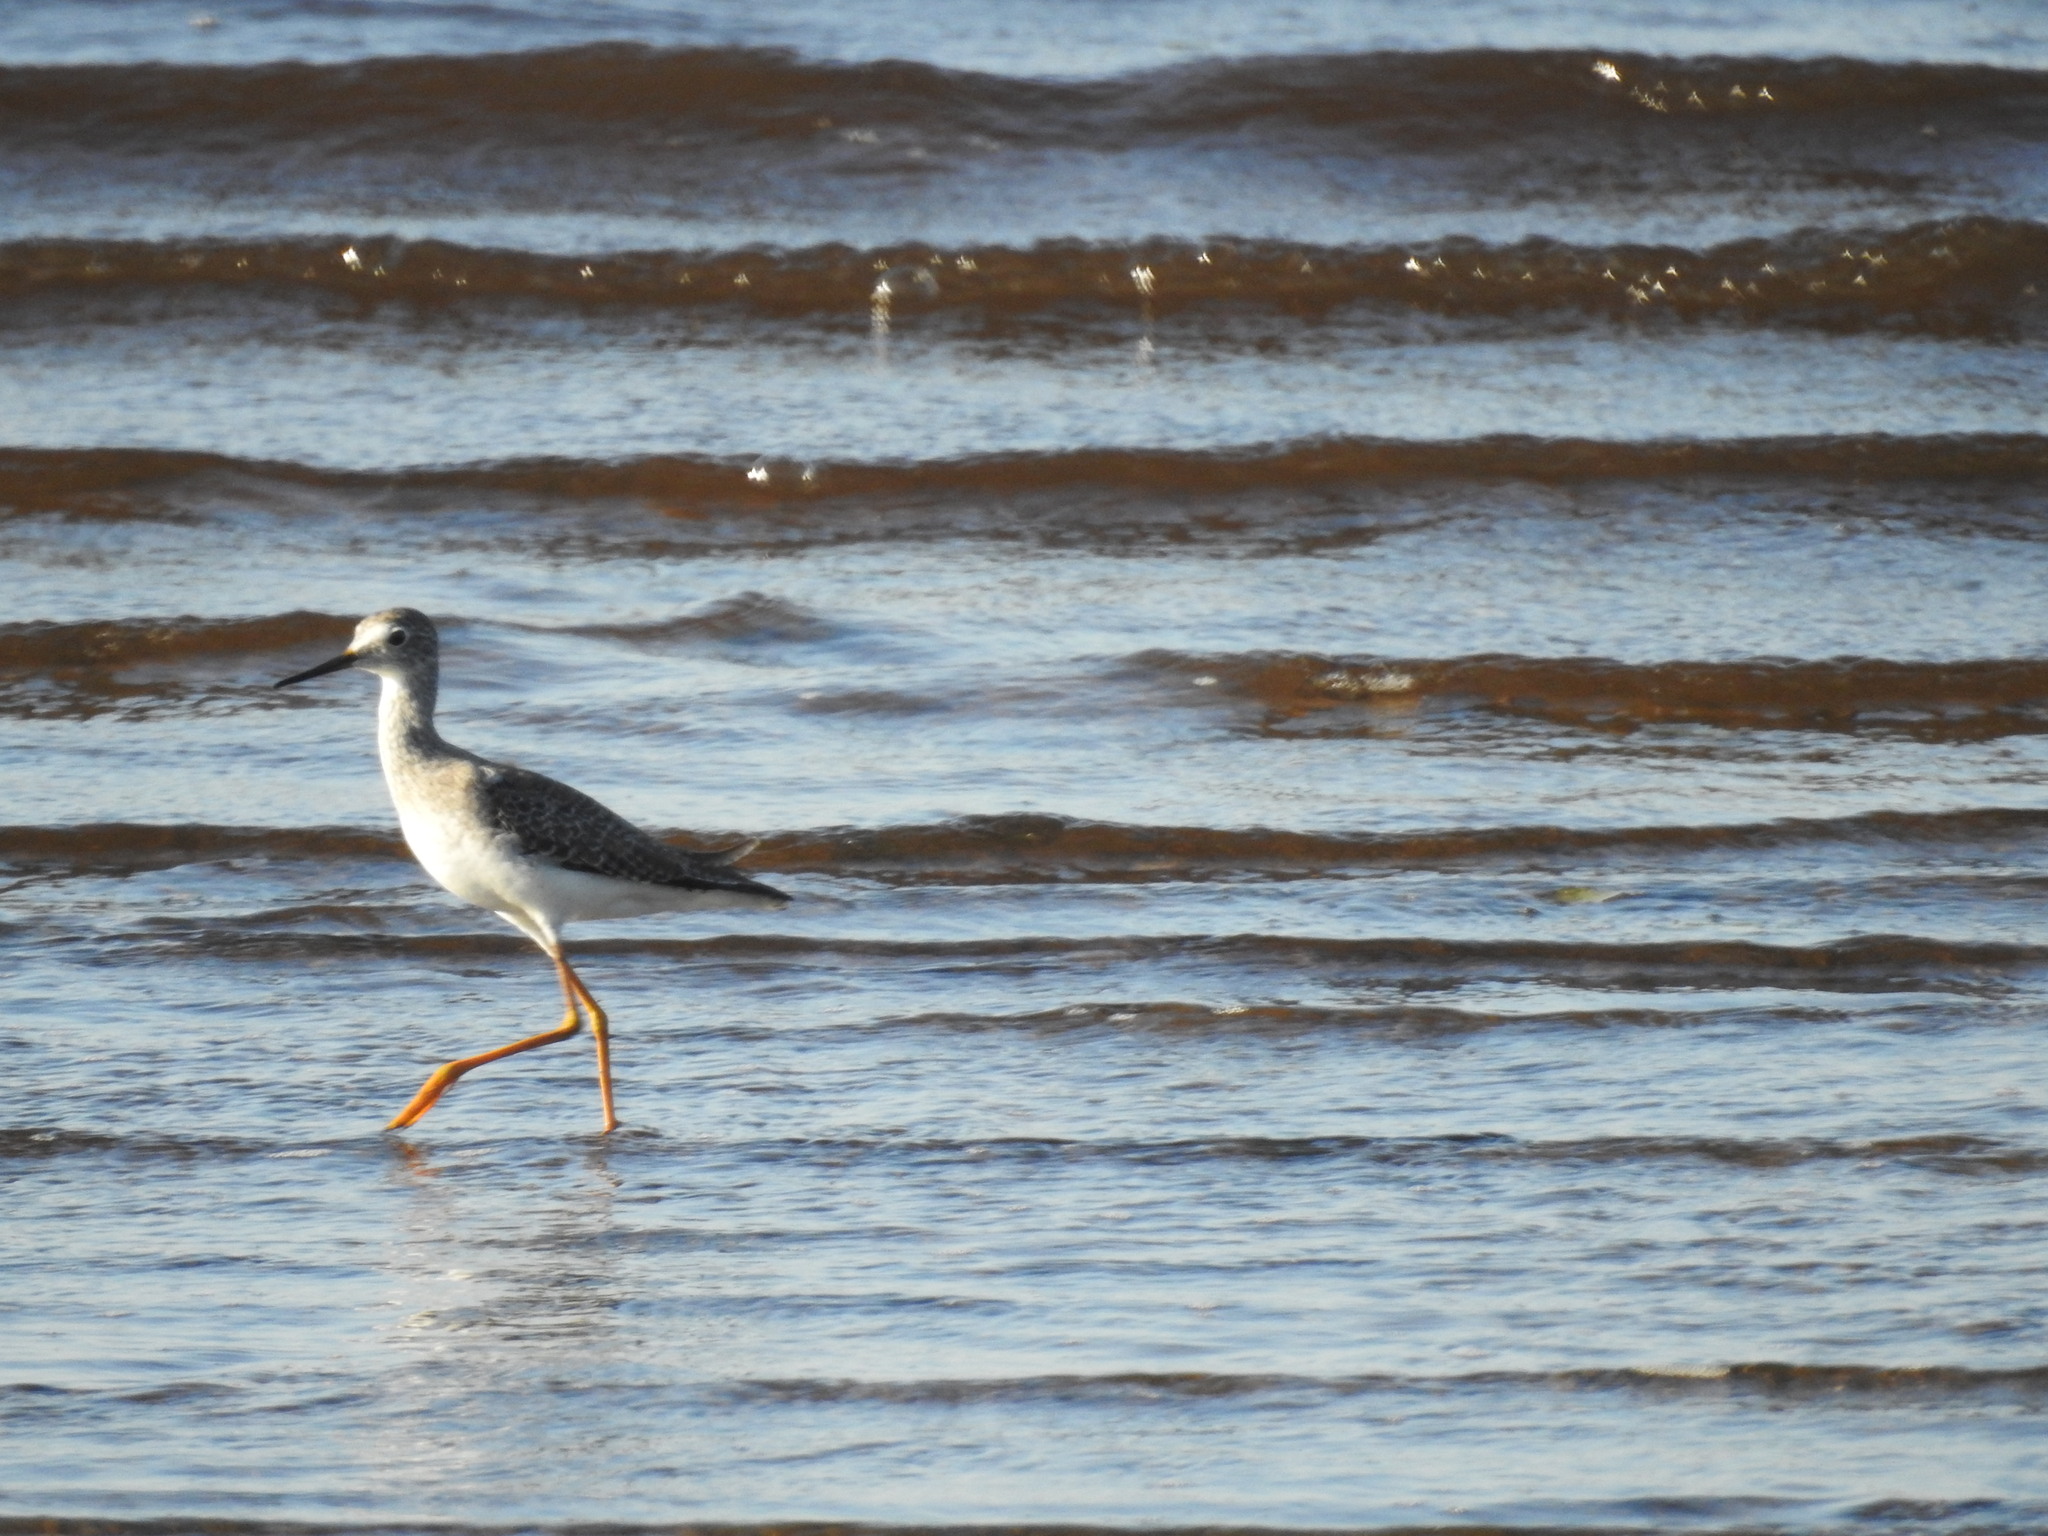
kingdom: Animalia
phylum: Chordata
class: Aves
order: Charadriiformes
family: Scolopacidae
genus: Tringa
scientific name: Tringa melanoleuca
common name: Greater yellowlegs
